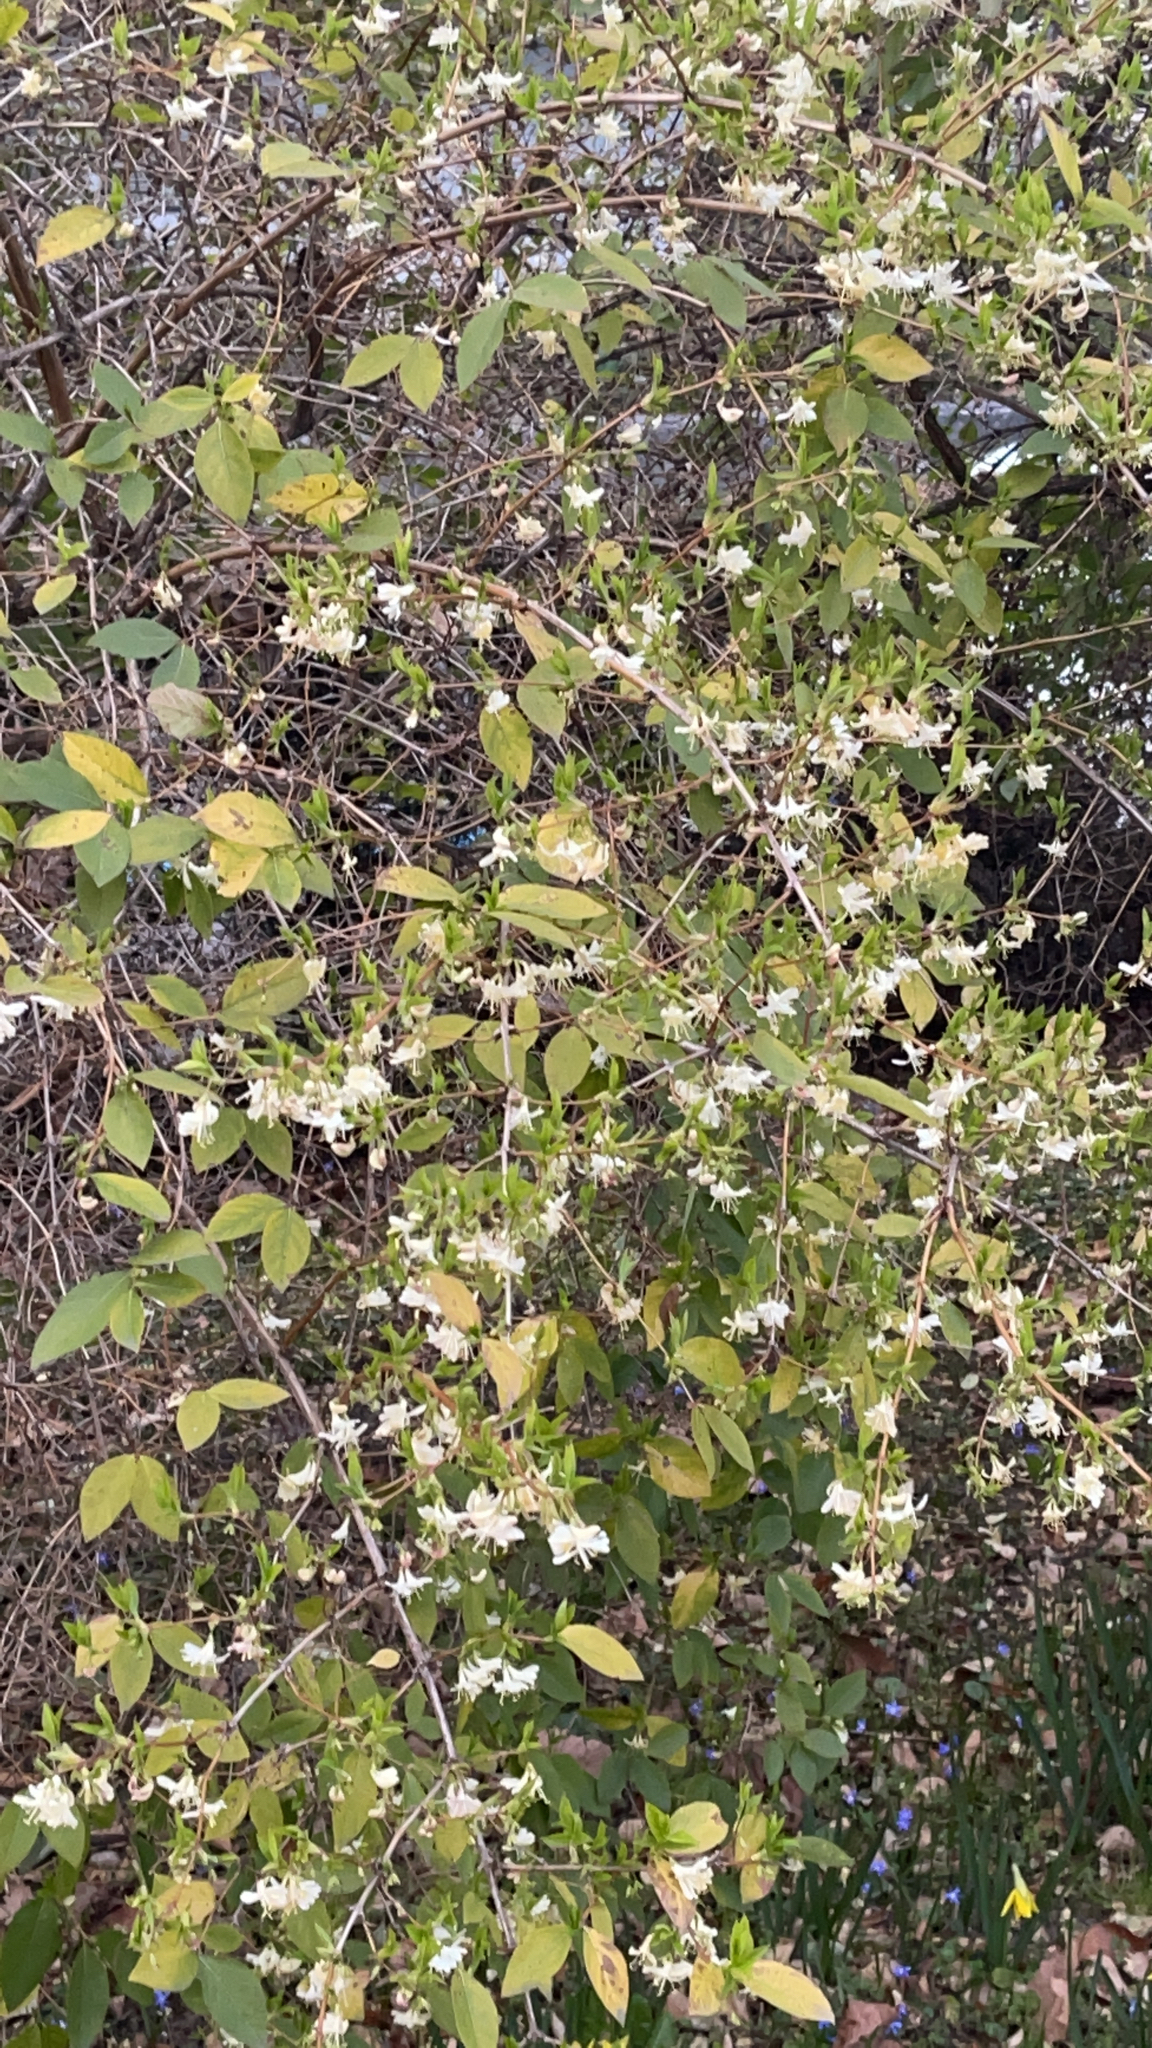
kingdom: Plantae
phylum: Tracheophyta
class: Magnoliopsida
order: Dipsacales
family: Caprifoliaceae
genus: Lonicera
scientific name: Lonicera fragrantissima
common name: Fragrant honeysuckle
